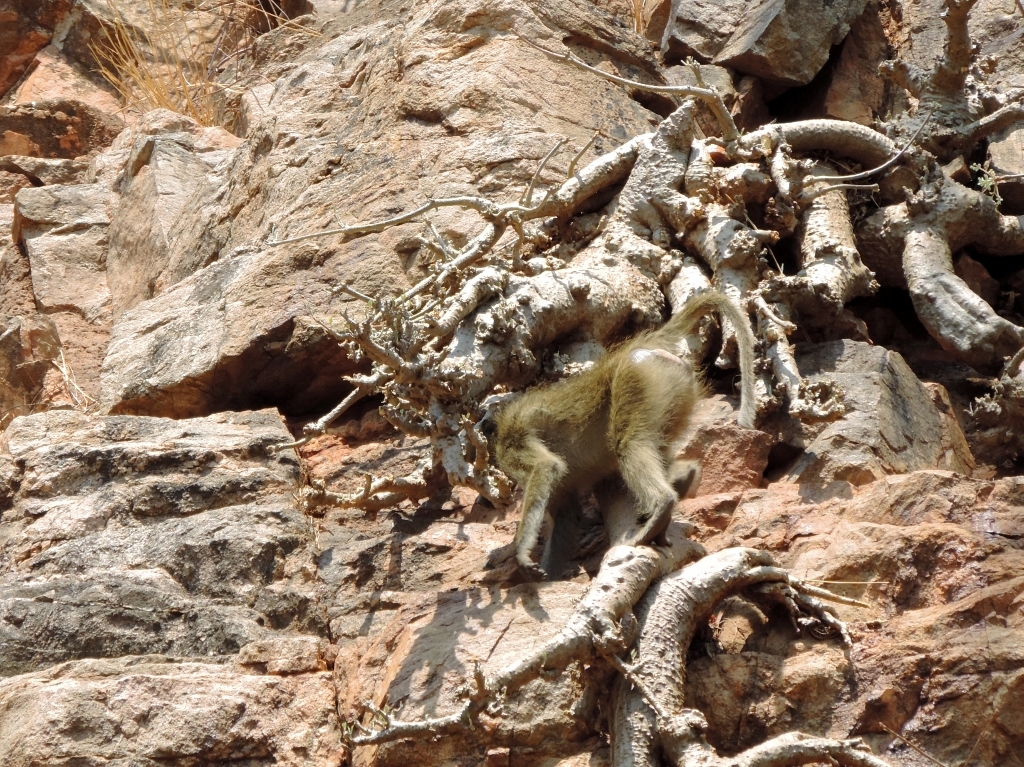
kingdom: Animalia
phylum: Chordata
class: Mammalia
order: Primates
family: Cercopithecidae
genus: Papio
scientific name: Papio ursinus
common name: Chacma baboon
